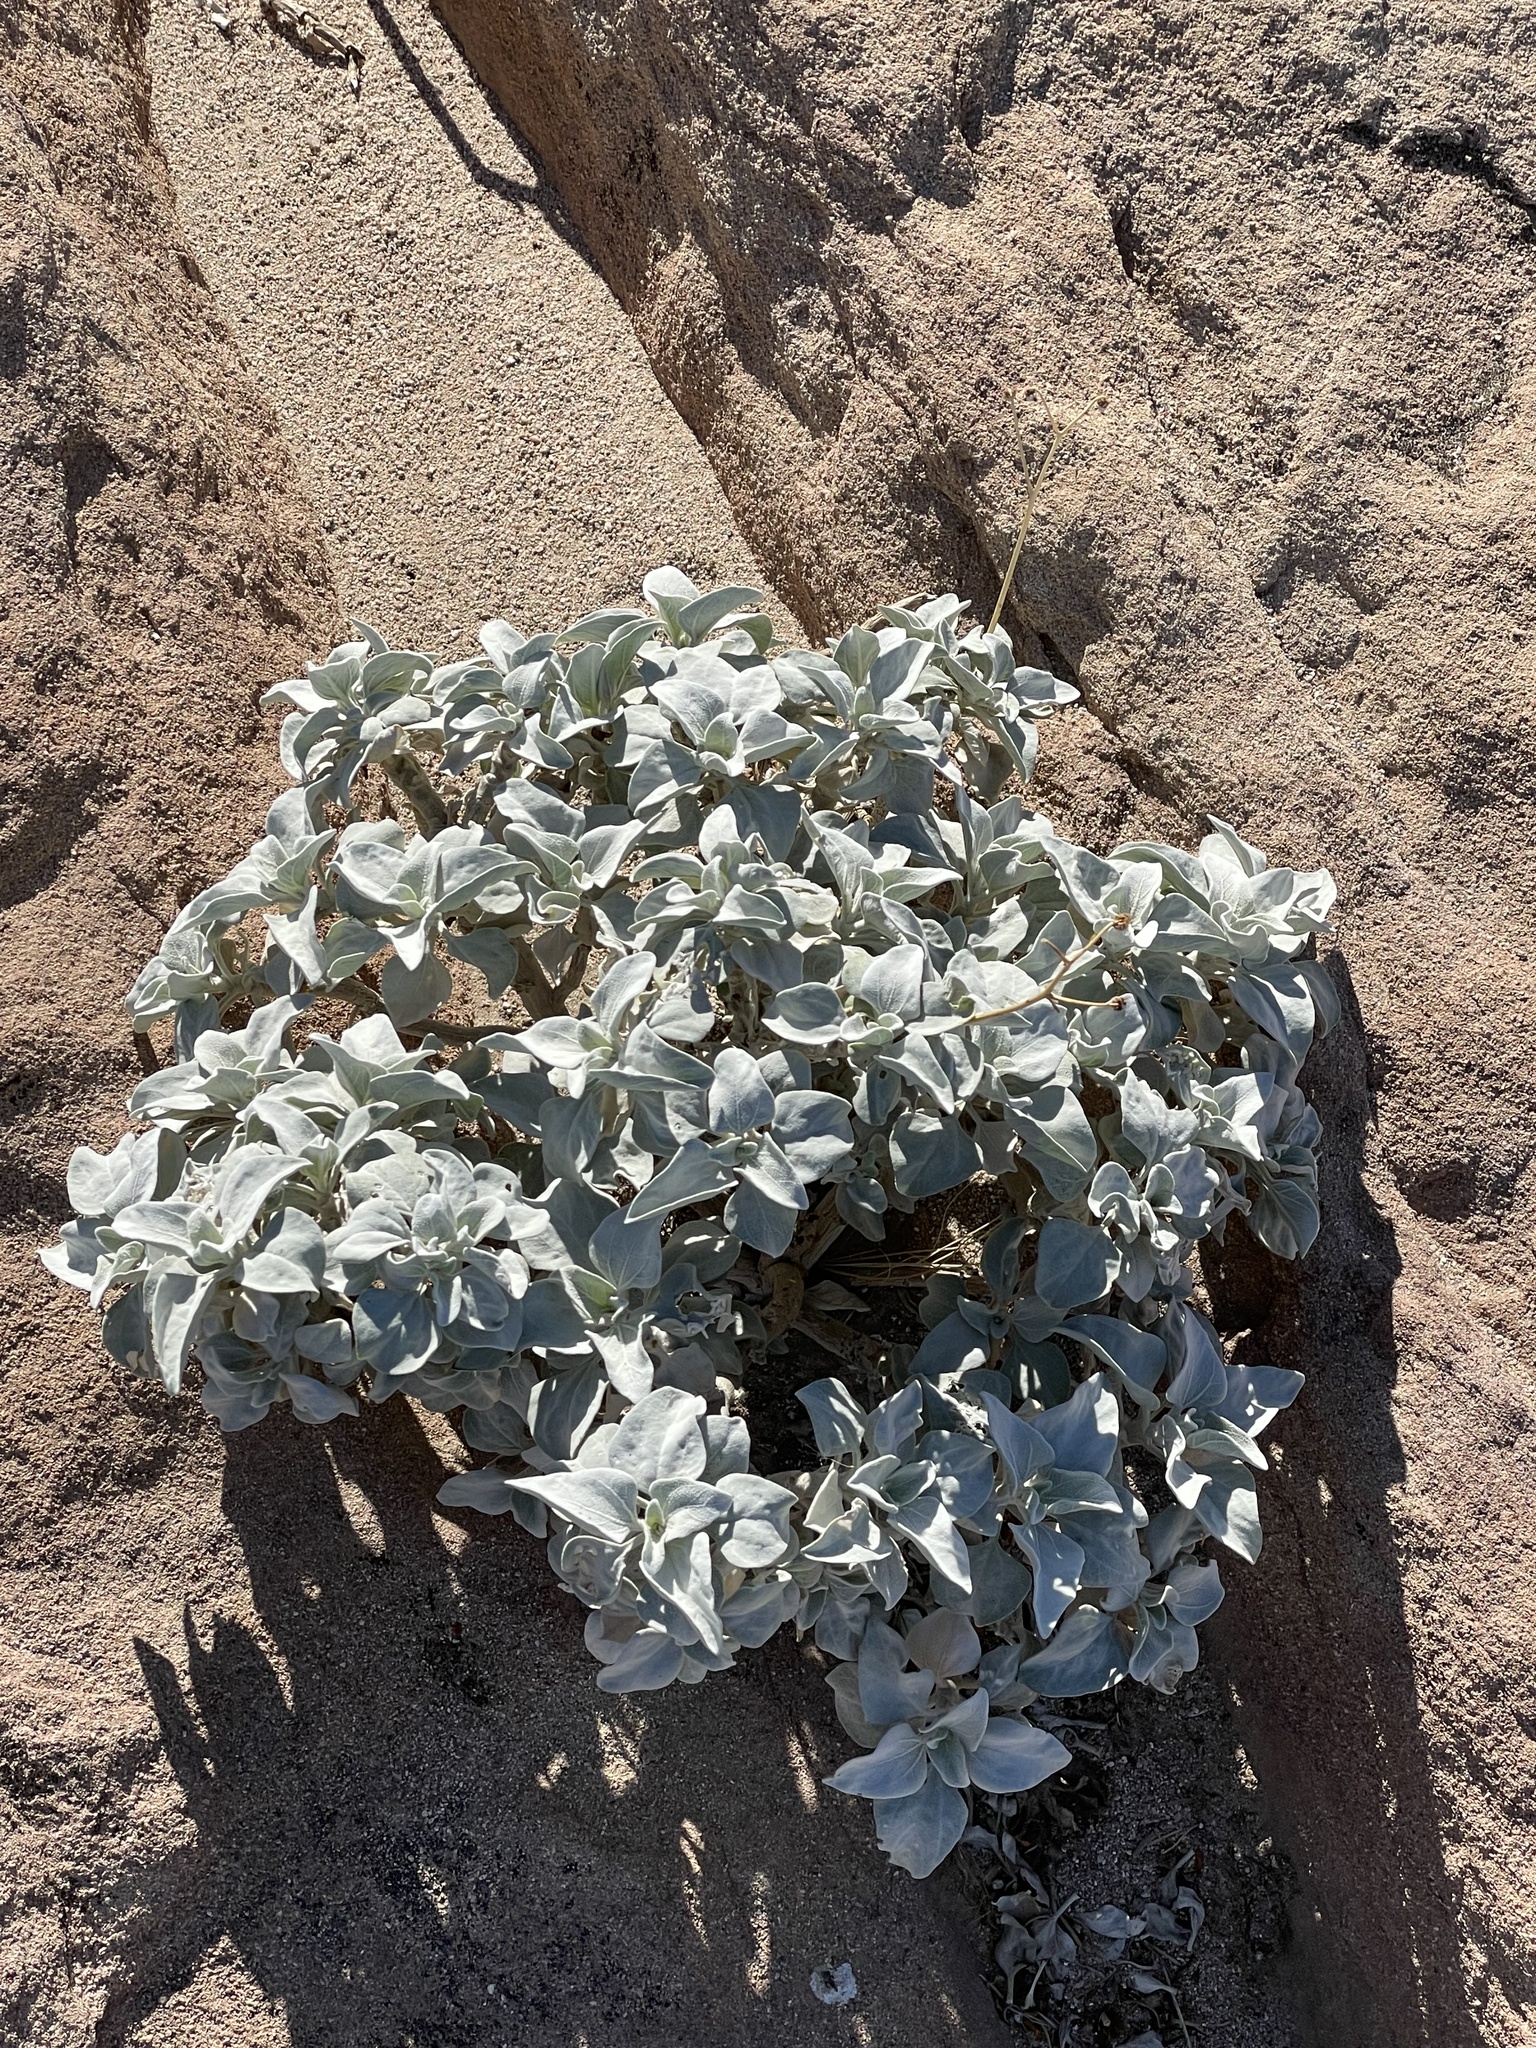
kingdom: Plantae
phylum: Tracheophyta
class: Magnoliopsida
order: Asterales
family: Asteraceae
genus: Encelia
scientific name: Encelia farinosa
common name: Brittlebush
